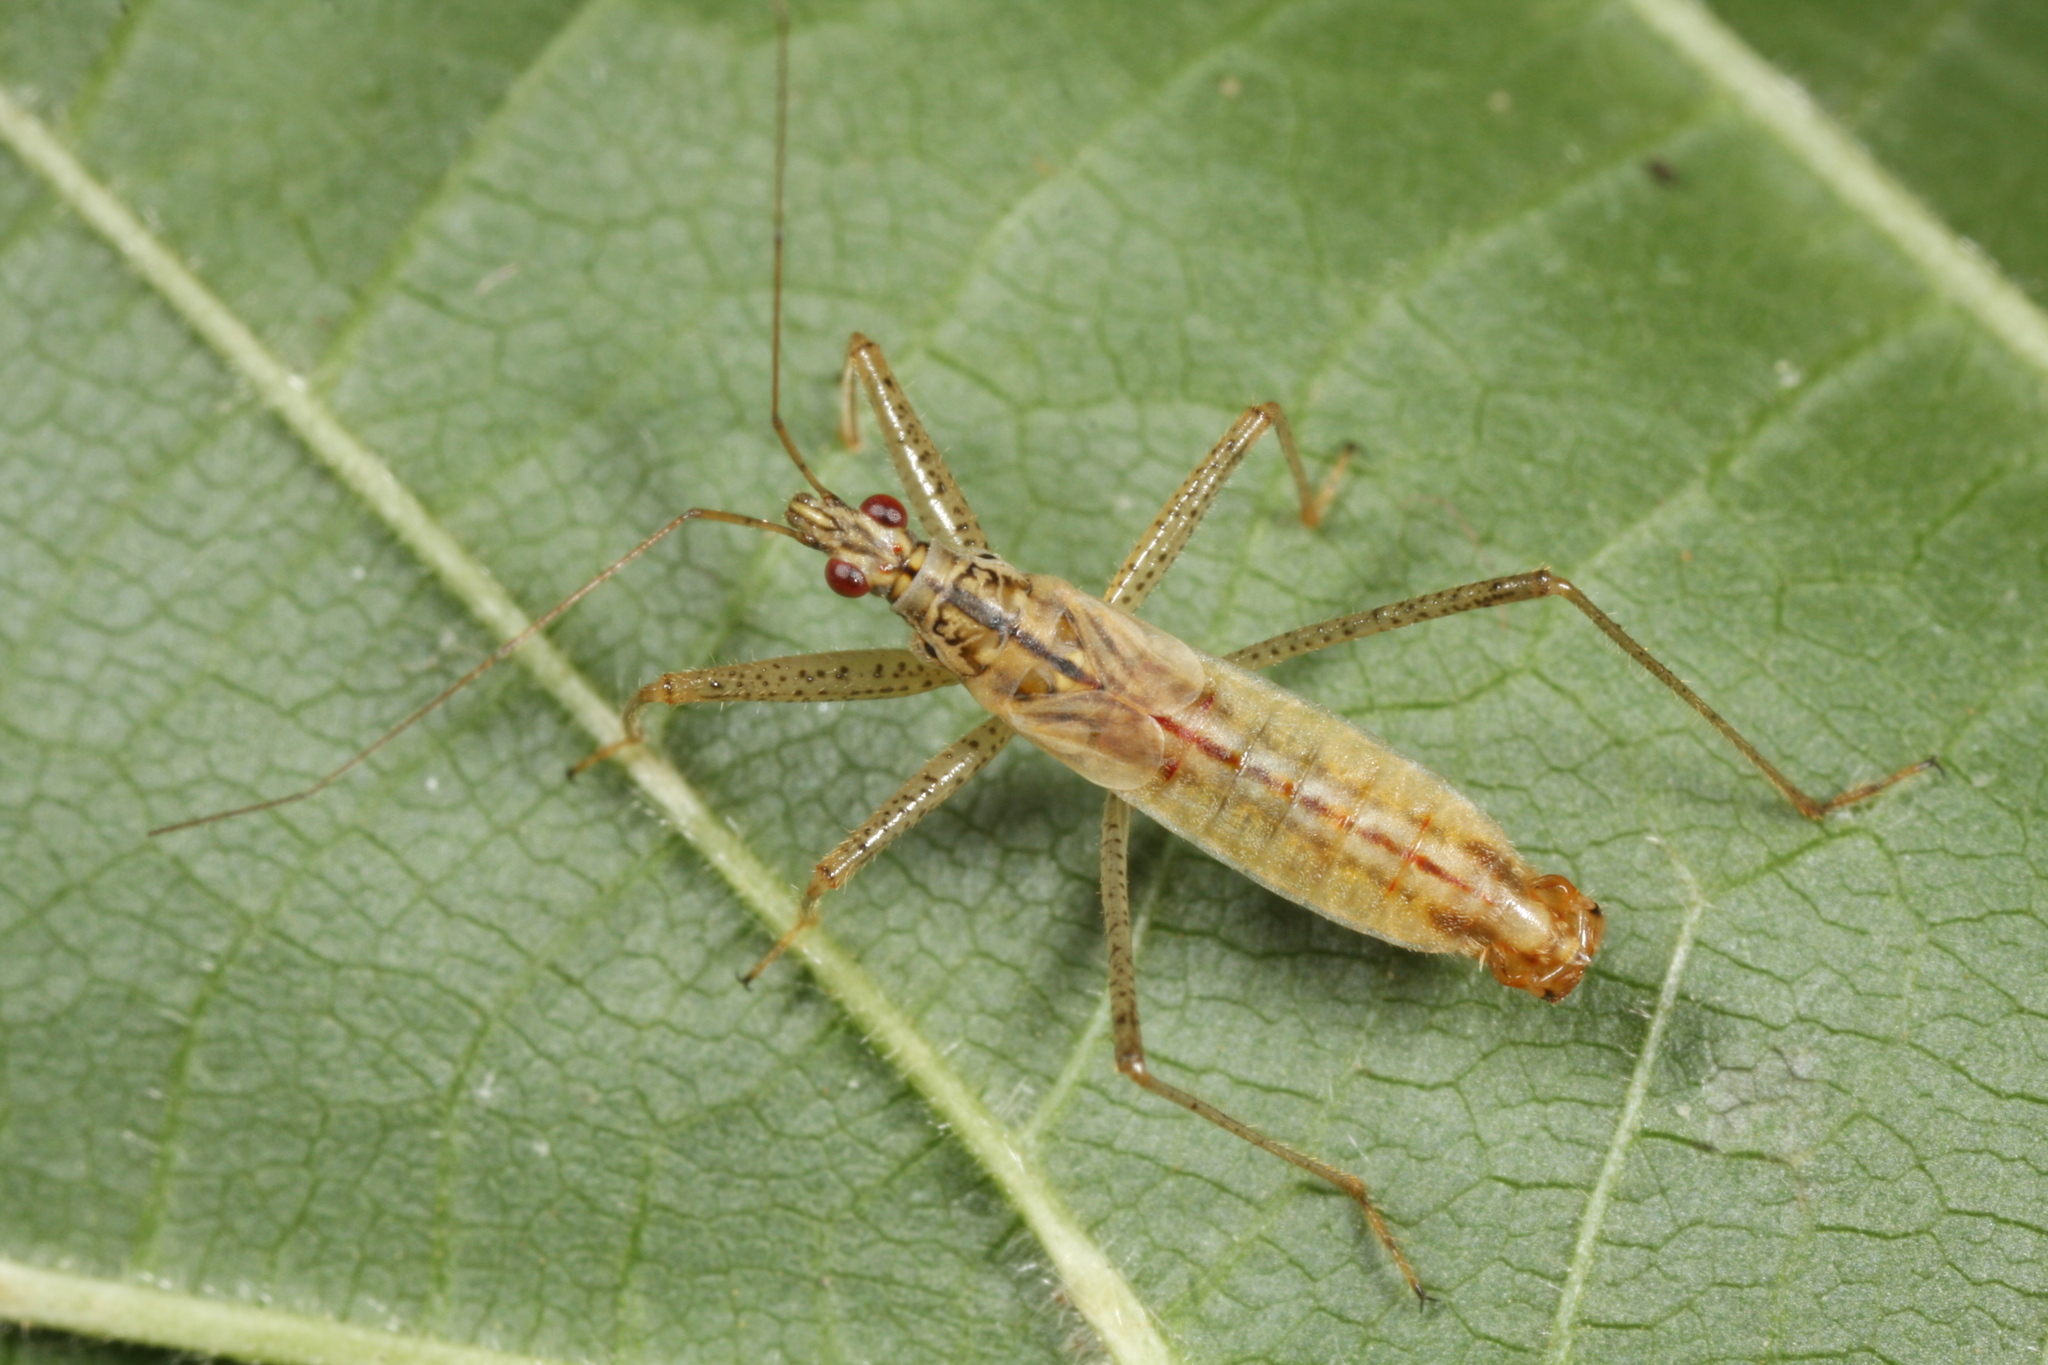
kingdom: Animalia
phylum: Arthropoda
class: Insecta
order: Hemiptera
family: Nabidae
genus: Nabis
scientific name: Nabis limbatus
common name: Marsh damselbug
